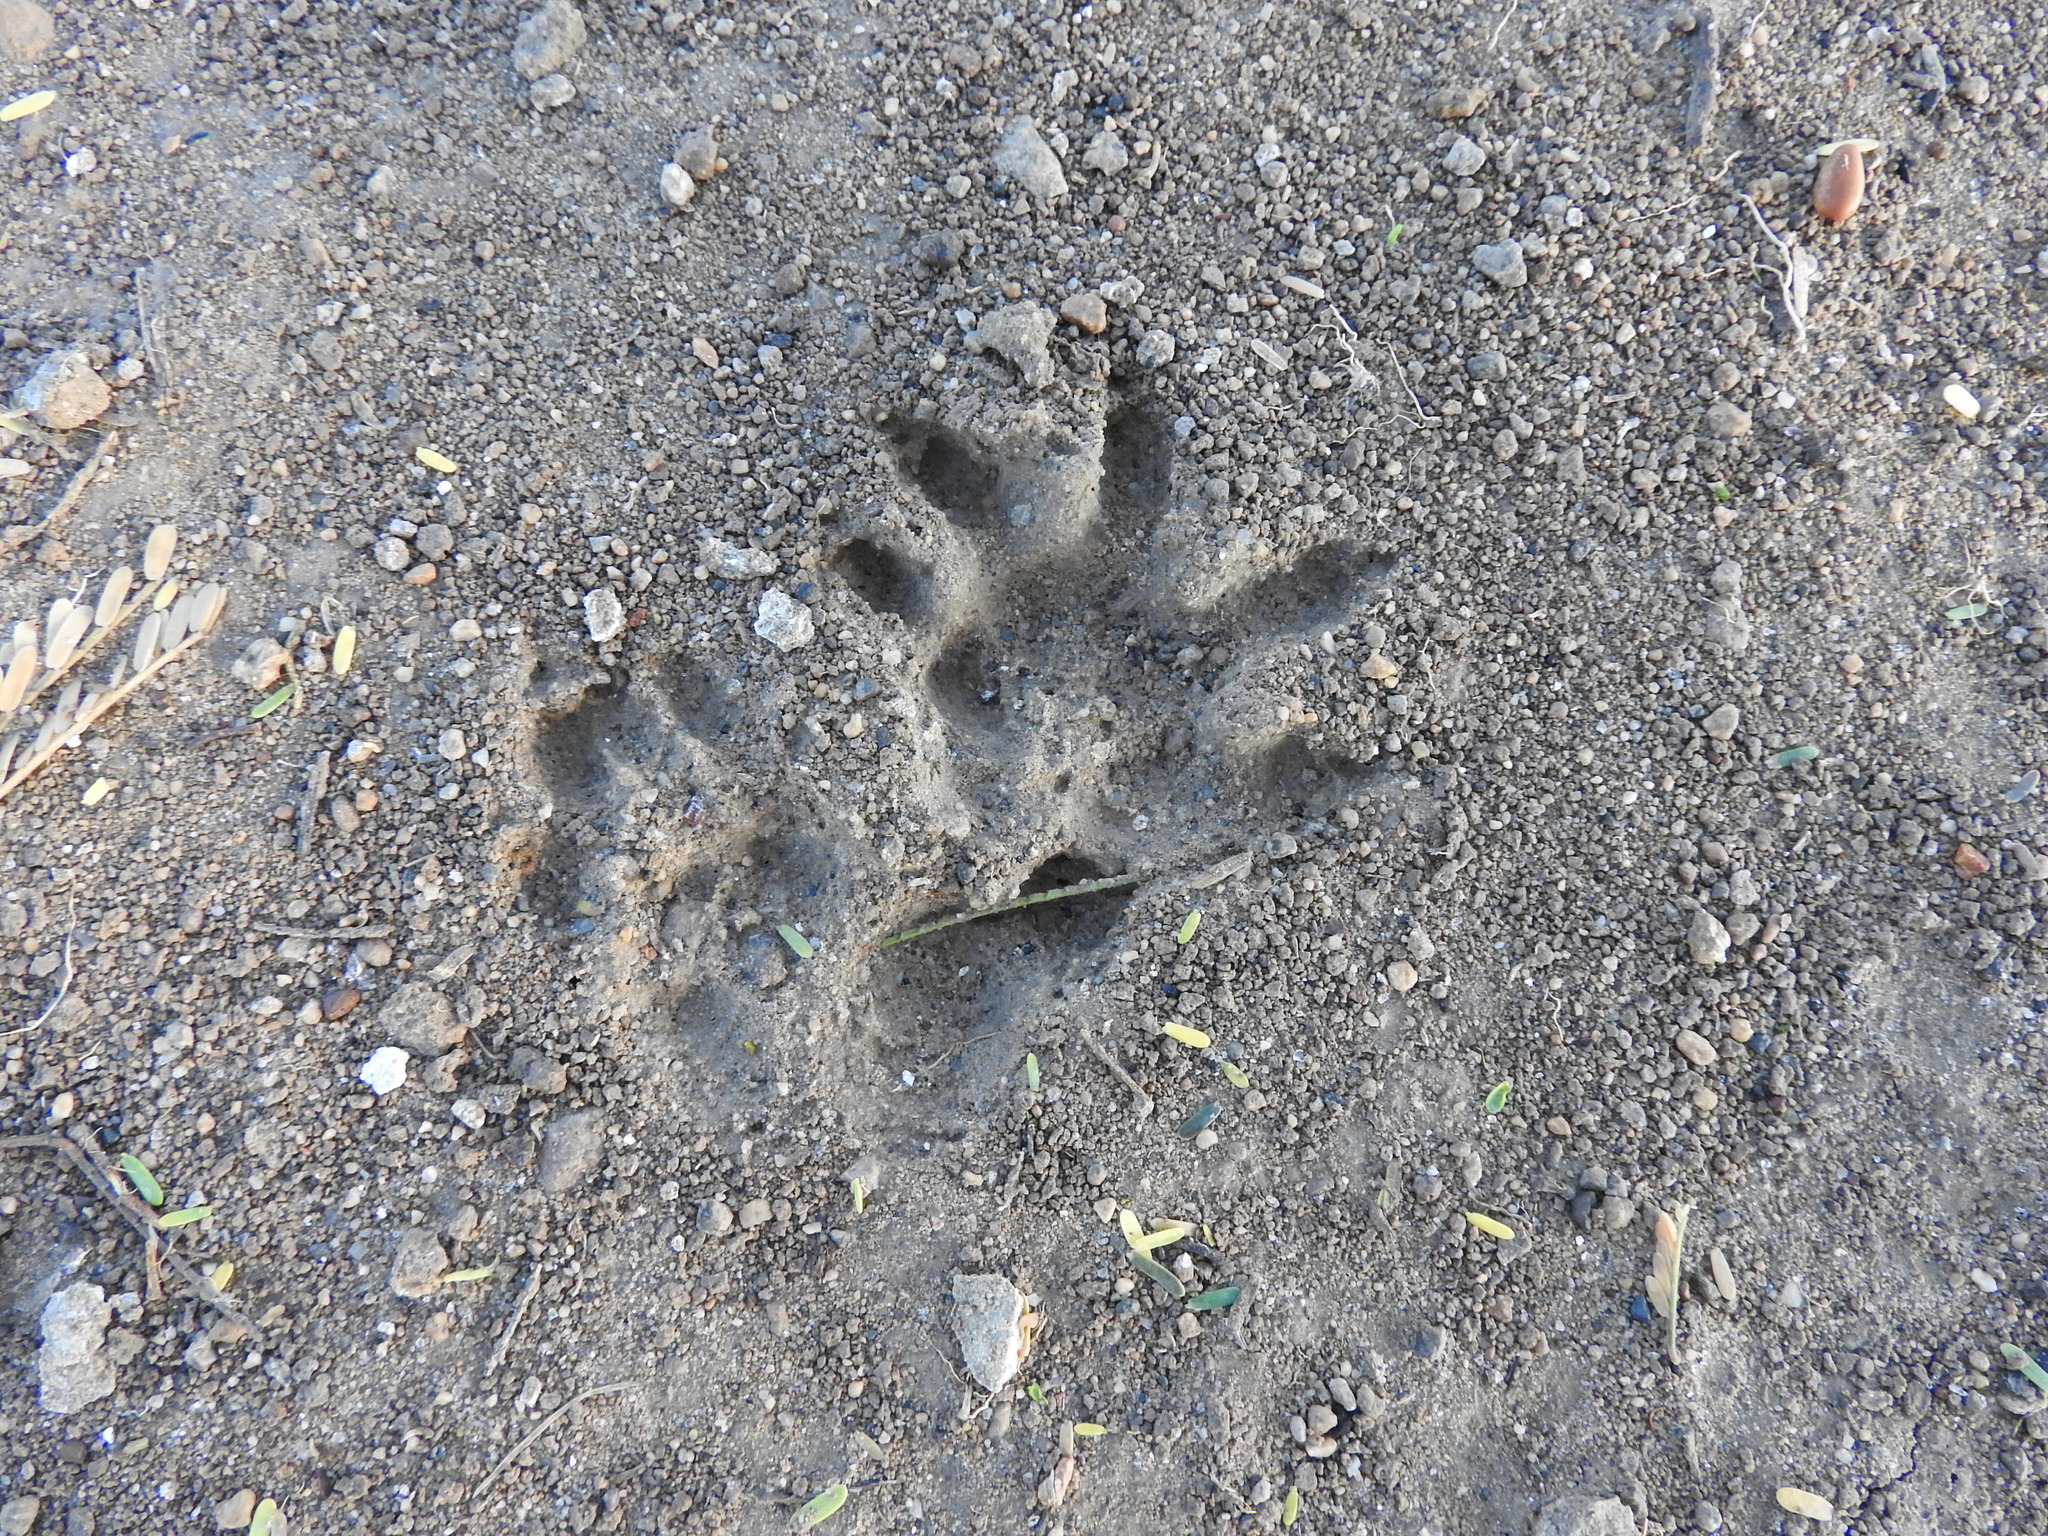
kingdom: Animalia
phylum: Chordata
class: Mammalia
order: Didelphimorphia
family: Didelphidae
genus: Didelphis
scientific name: Didelphis virginiana
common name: Virginia opossum
